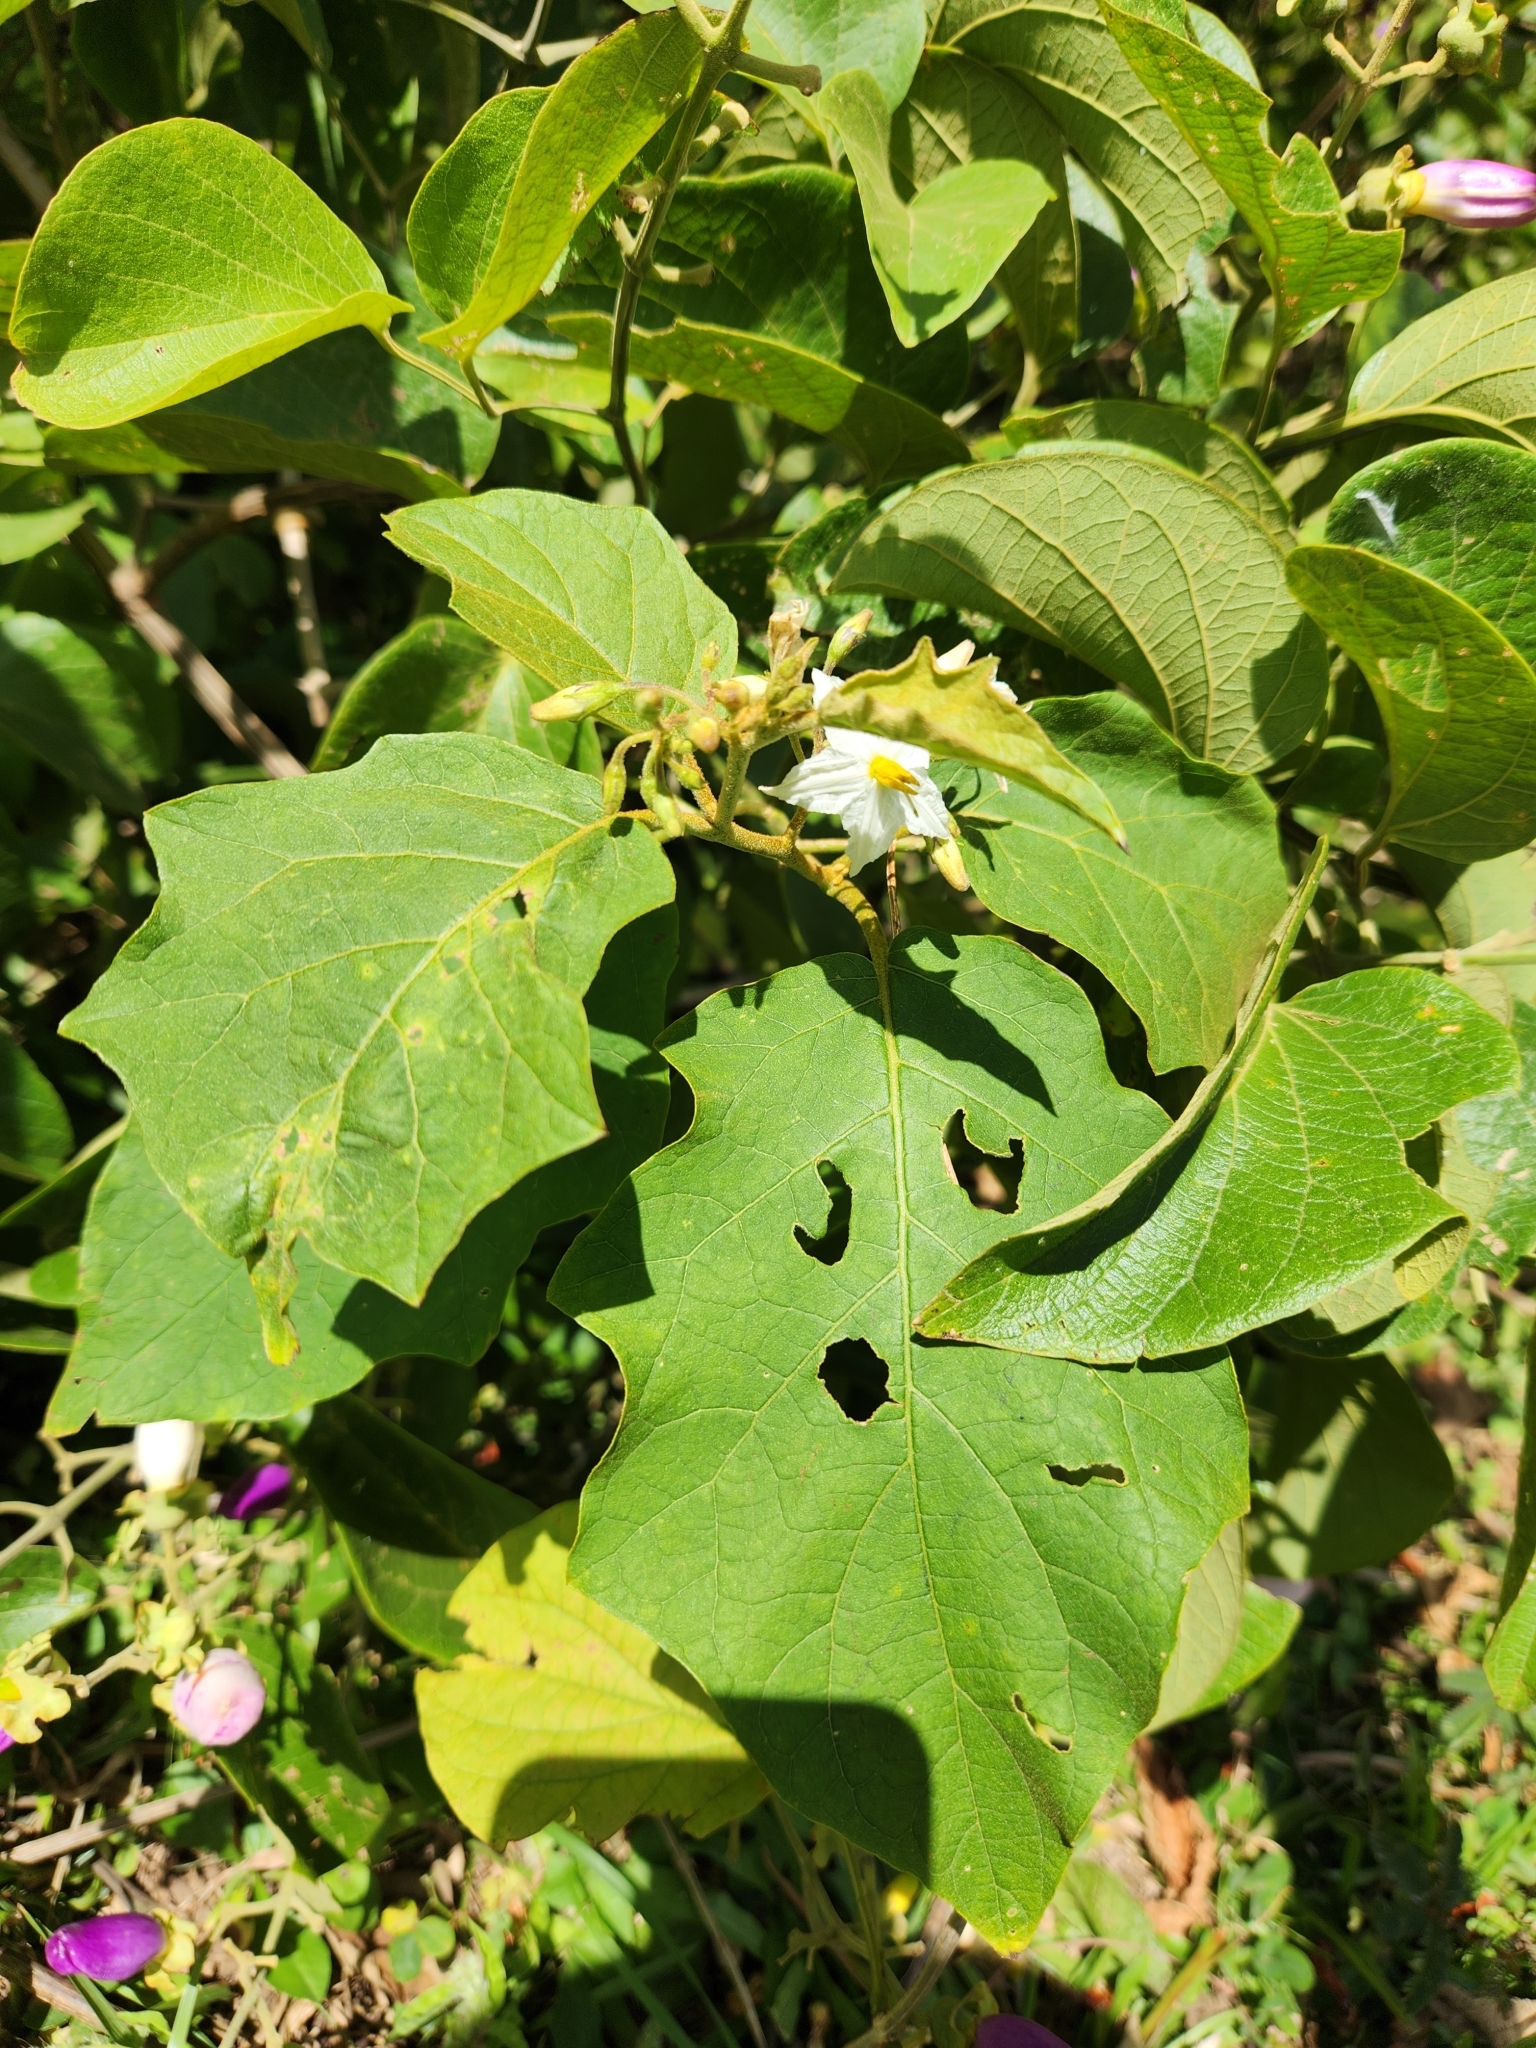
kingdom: Plantae
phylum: Tracheophyta
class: Magnoliopsida
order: Solanales
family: Solanaceae
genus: Solanum
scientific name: Solanum torvum
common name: Turkey berry
